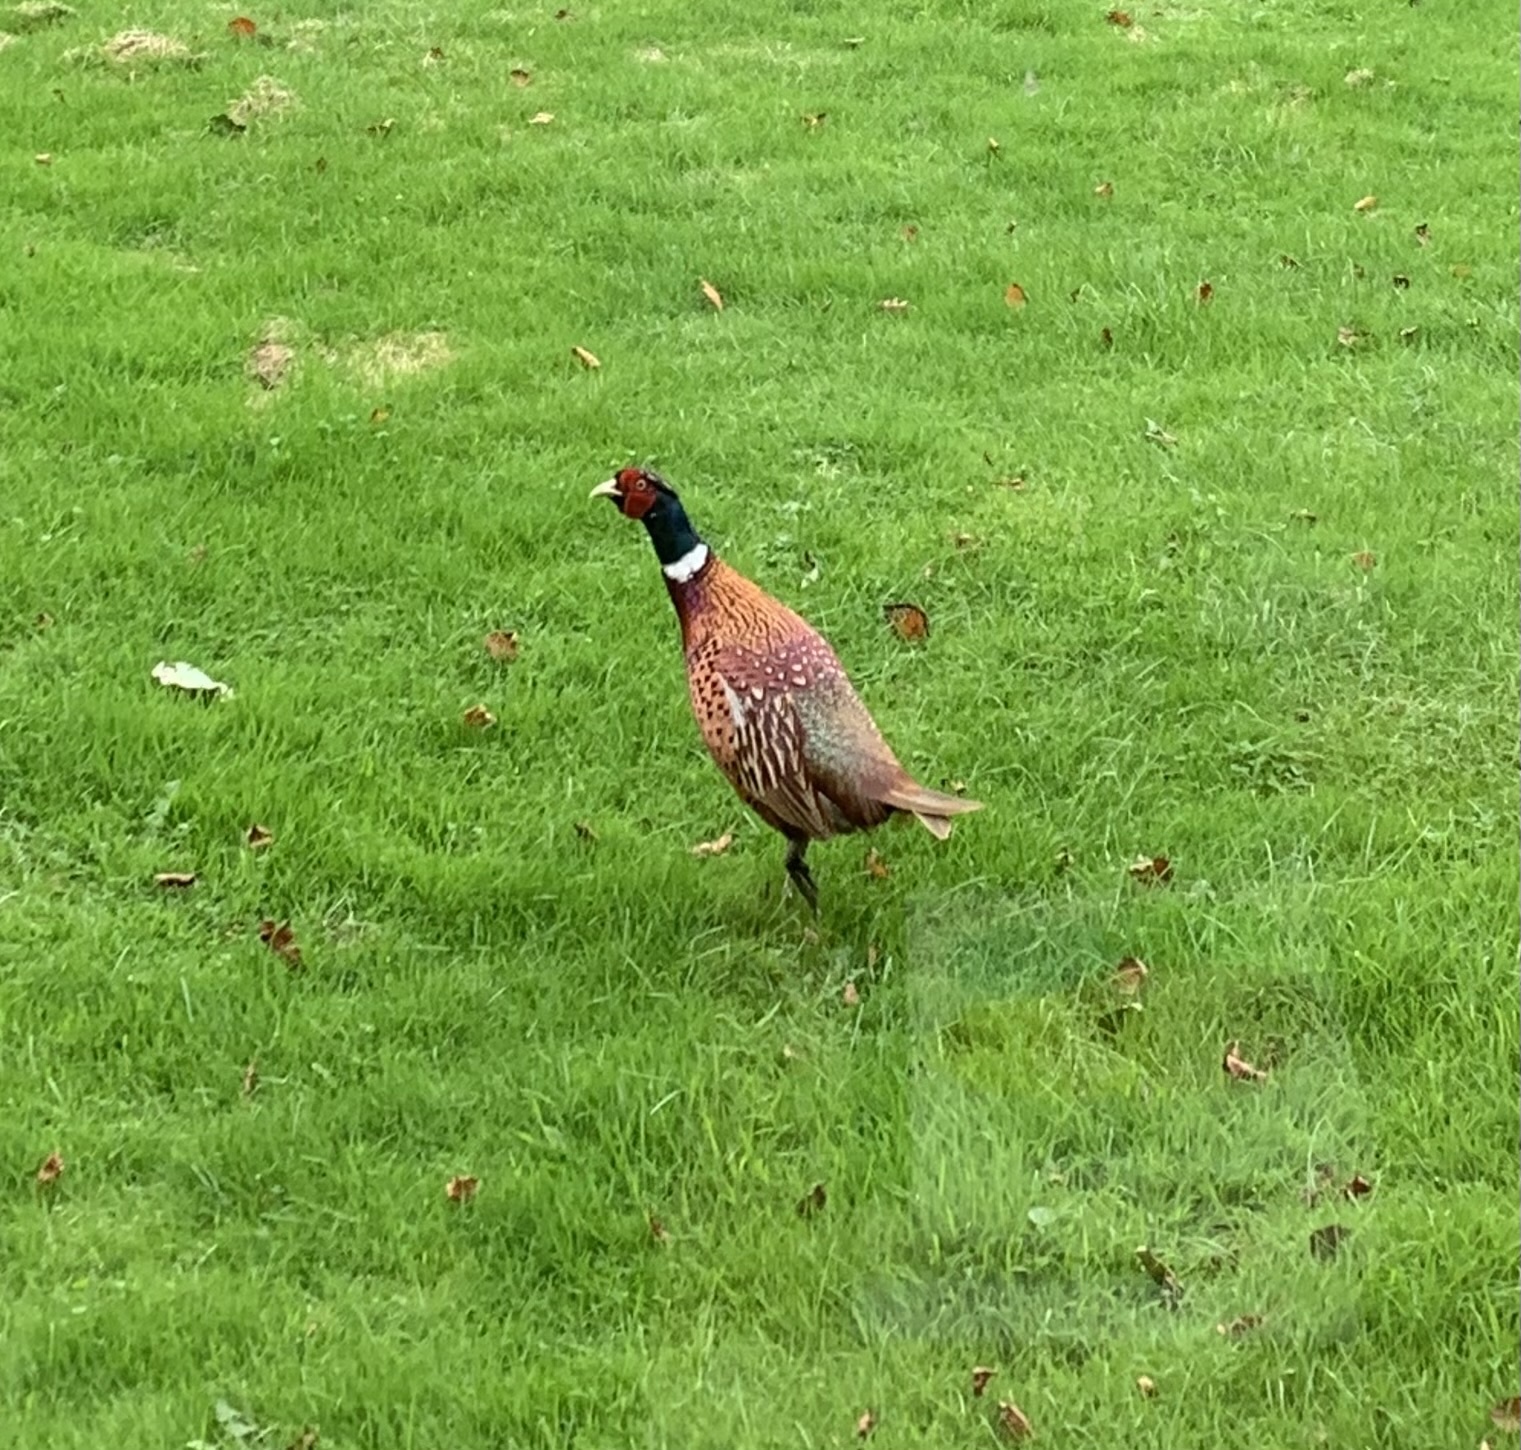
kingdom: Animalia
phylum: Chordata
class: Aves
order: Galliformes
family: Phasianidae
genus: Phasianus
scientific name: Phasianus colchicus
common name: Common pheasant
